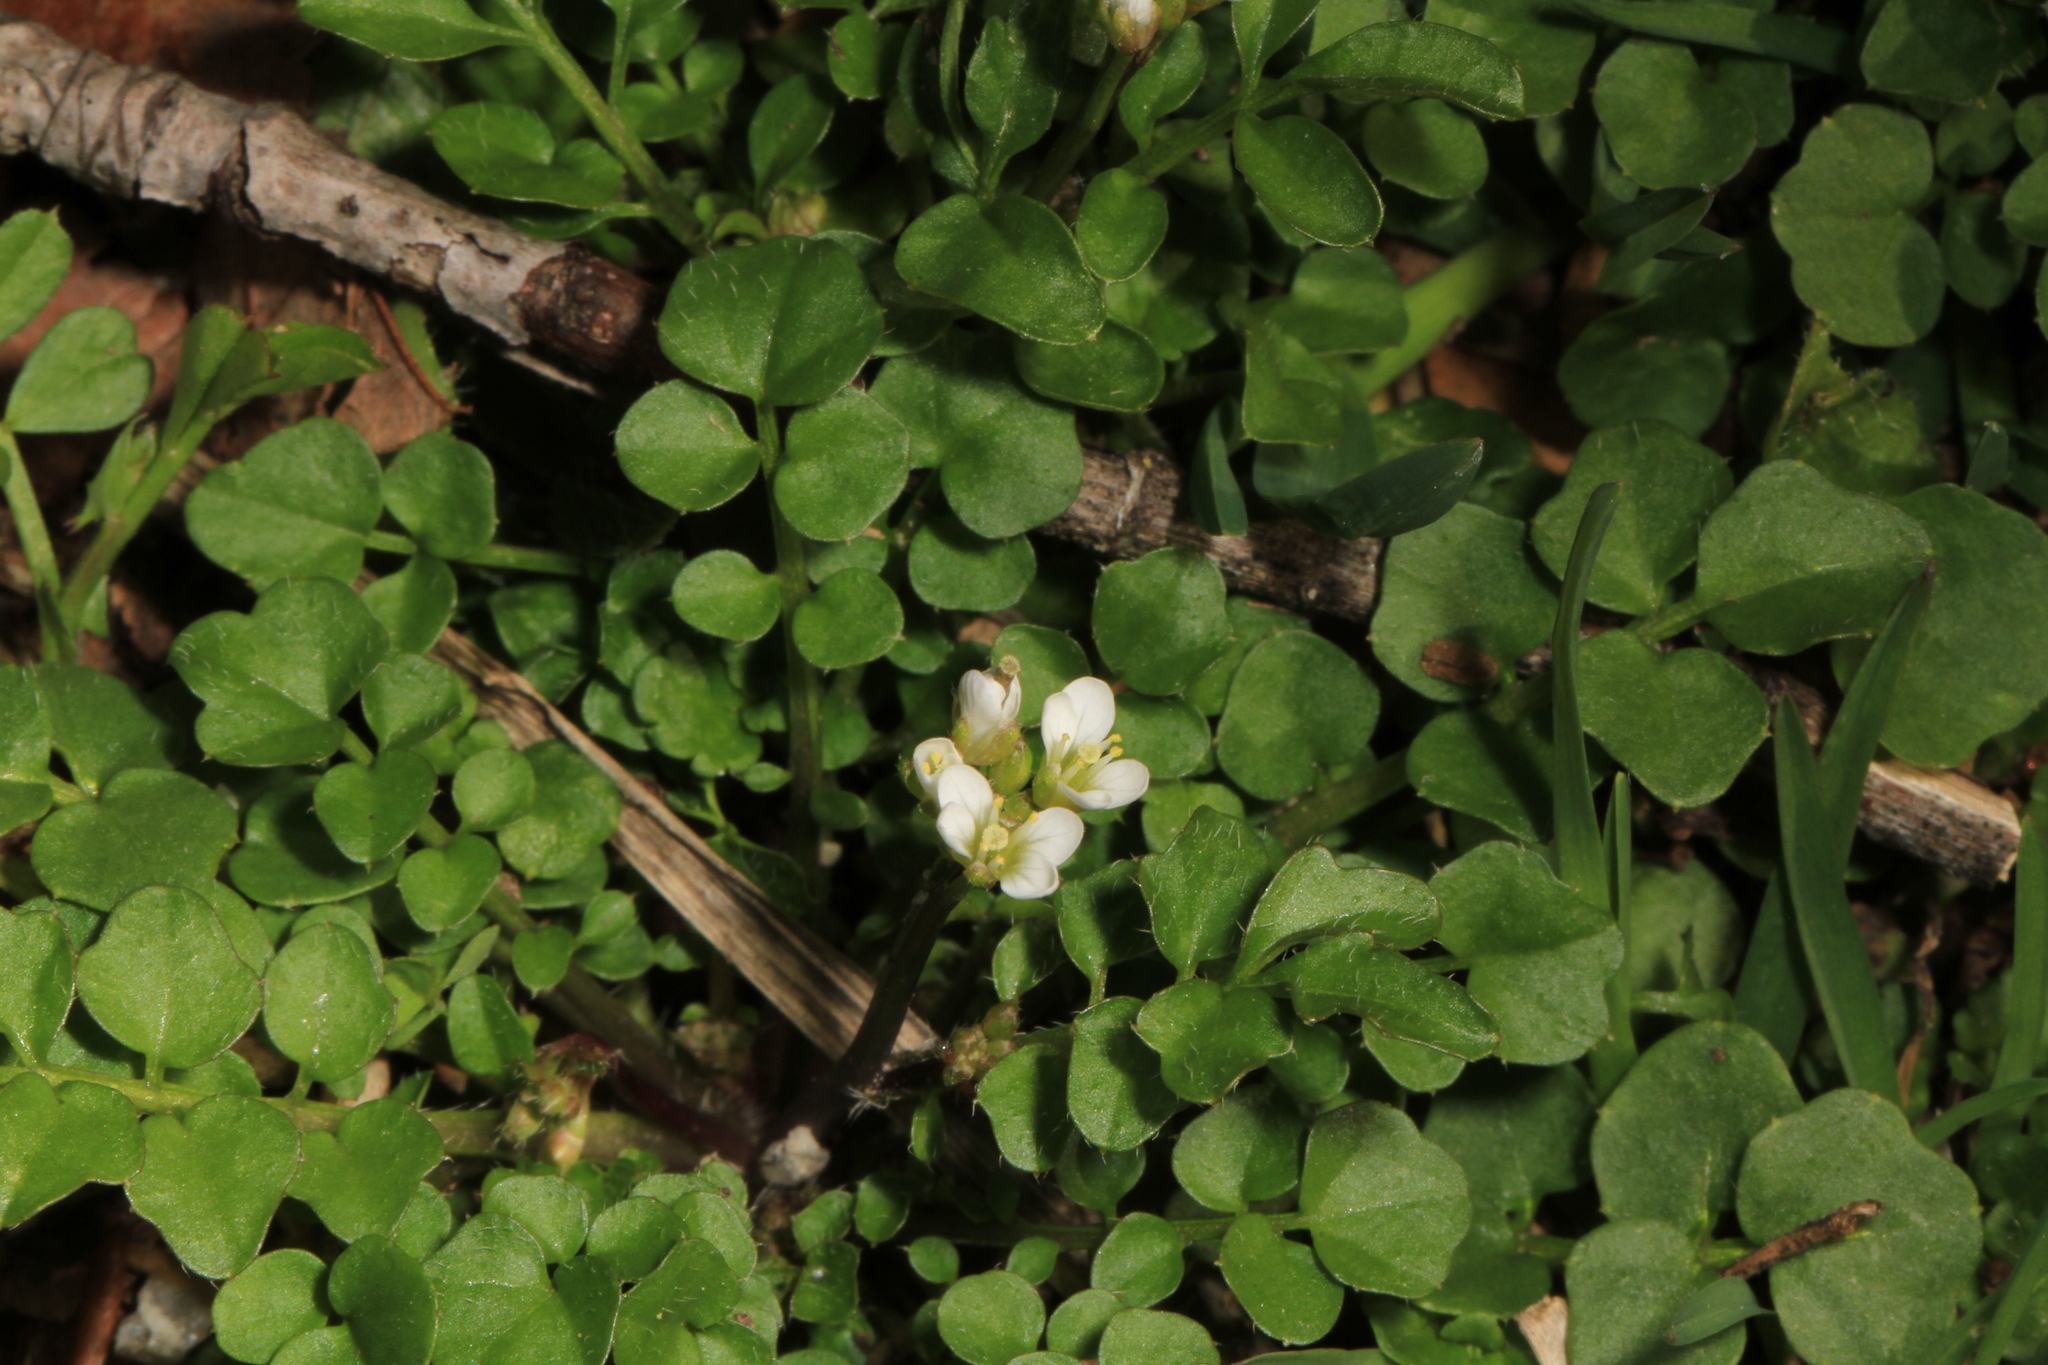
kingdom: Plantae
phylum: Tracheophyta
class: Magnoliopsida
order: Brassicales
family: Brassicaceae
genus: Cardamine
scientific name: Cardamine hirsuta
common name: Hairy bittercress
